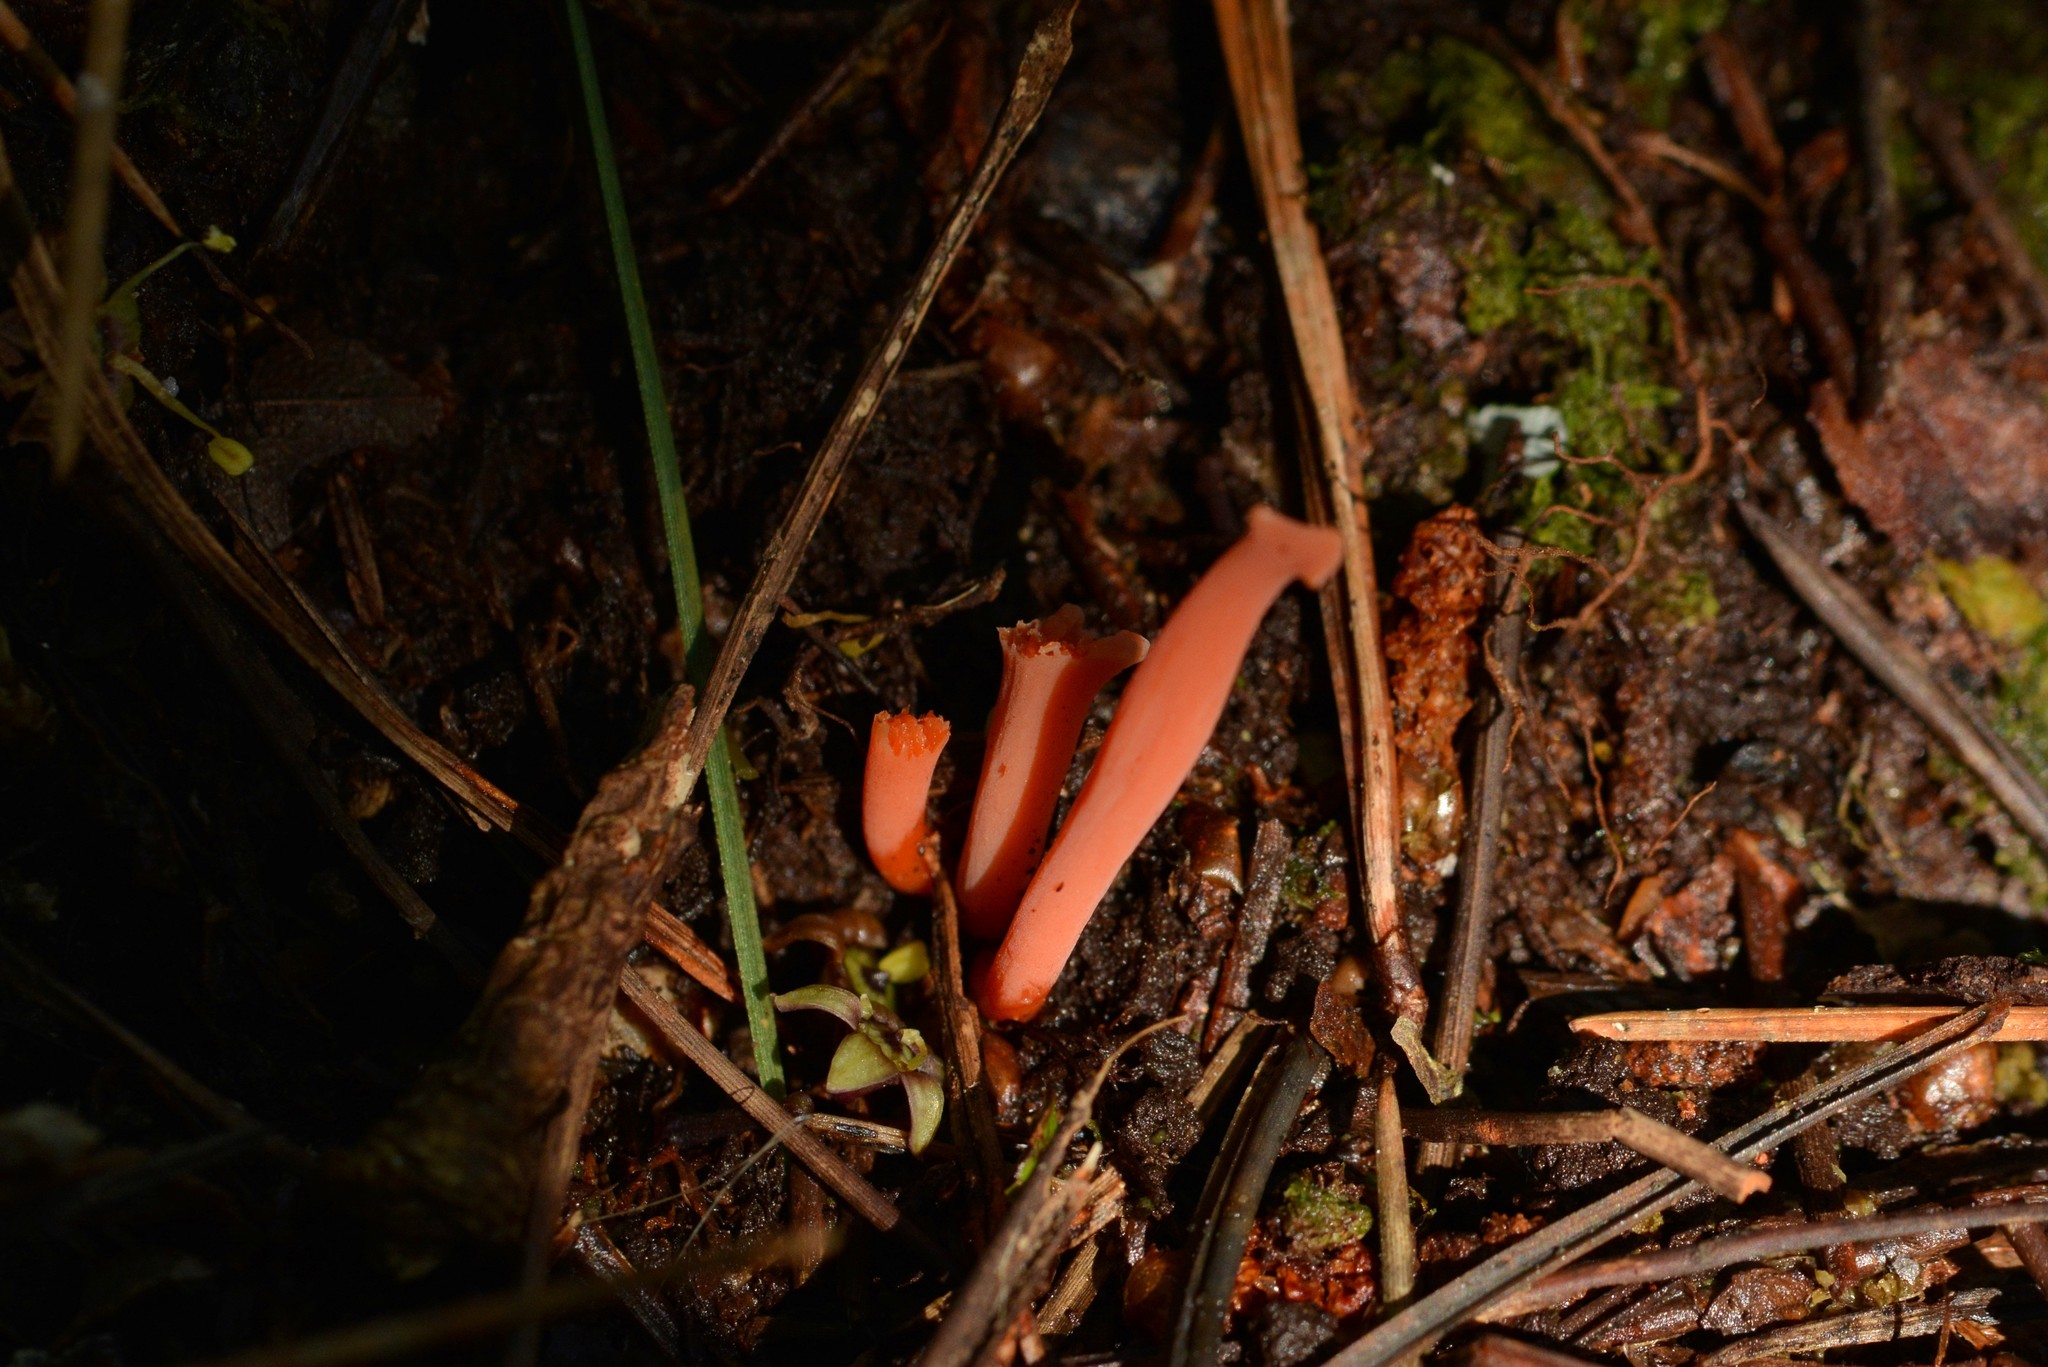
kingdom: Fungi
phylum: Basidiomycota
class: Agaricomycetes
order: Agaricales
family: Clavariaceae
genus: Clavulinopsis
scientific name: Clavulinopsis sulcata
